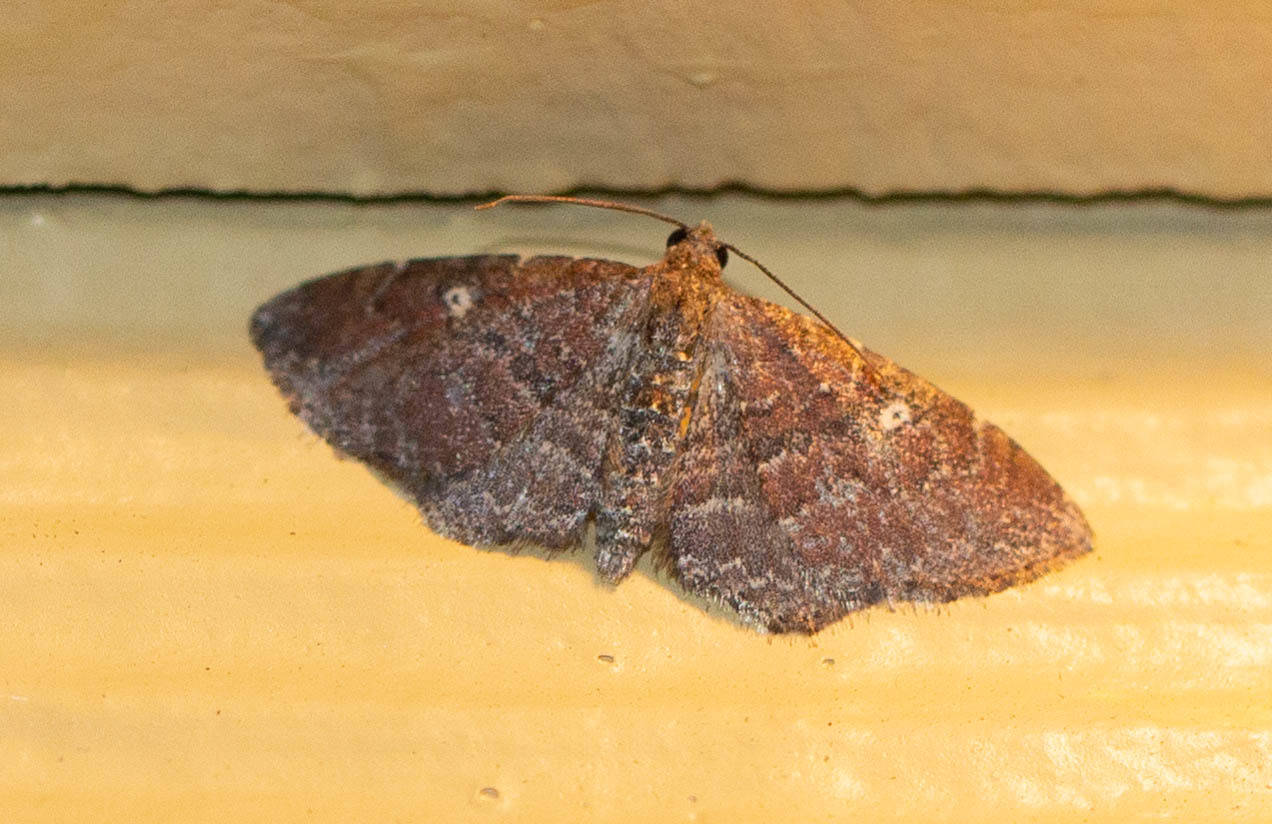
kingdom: Animalia
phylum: Arthropoda
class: Insecta
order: Lepidoptera
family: Geometridae
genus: Orthonama
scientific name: Orthonama obstipata
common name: The gem
